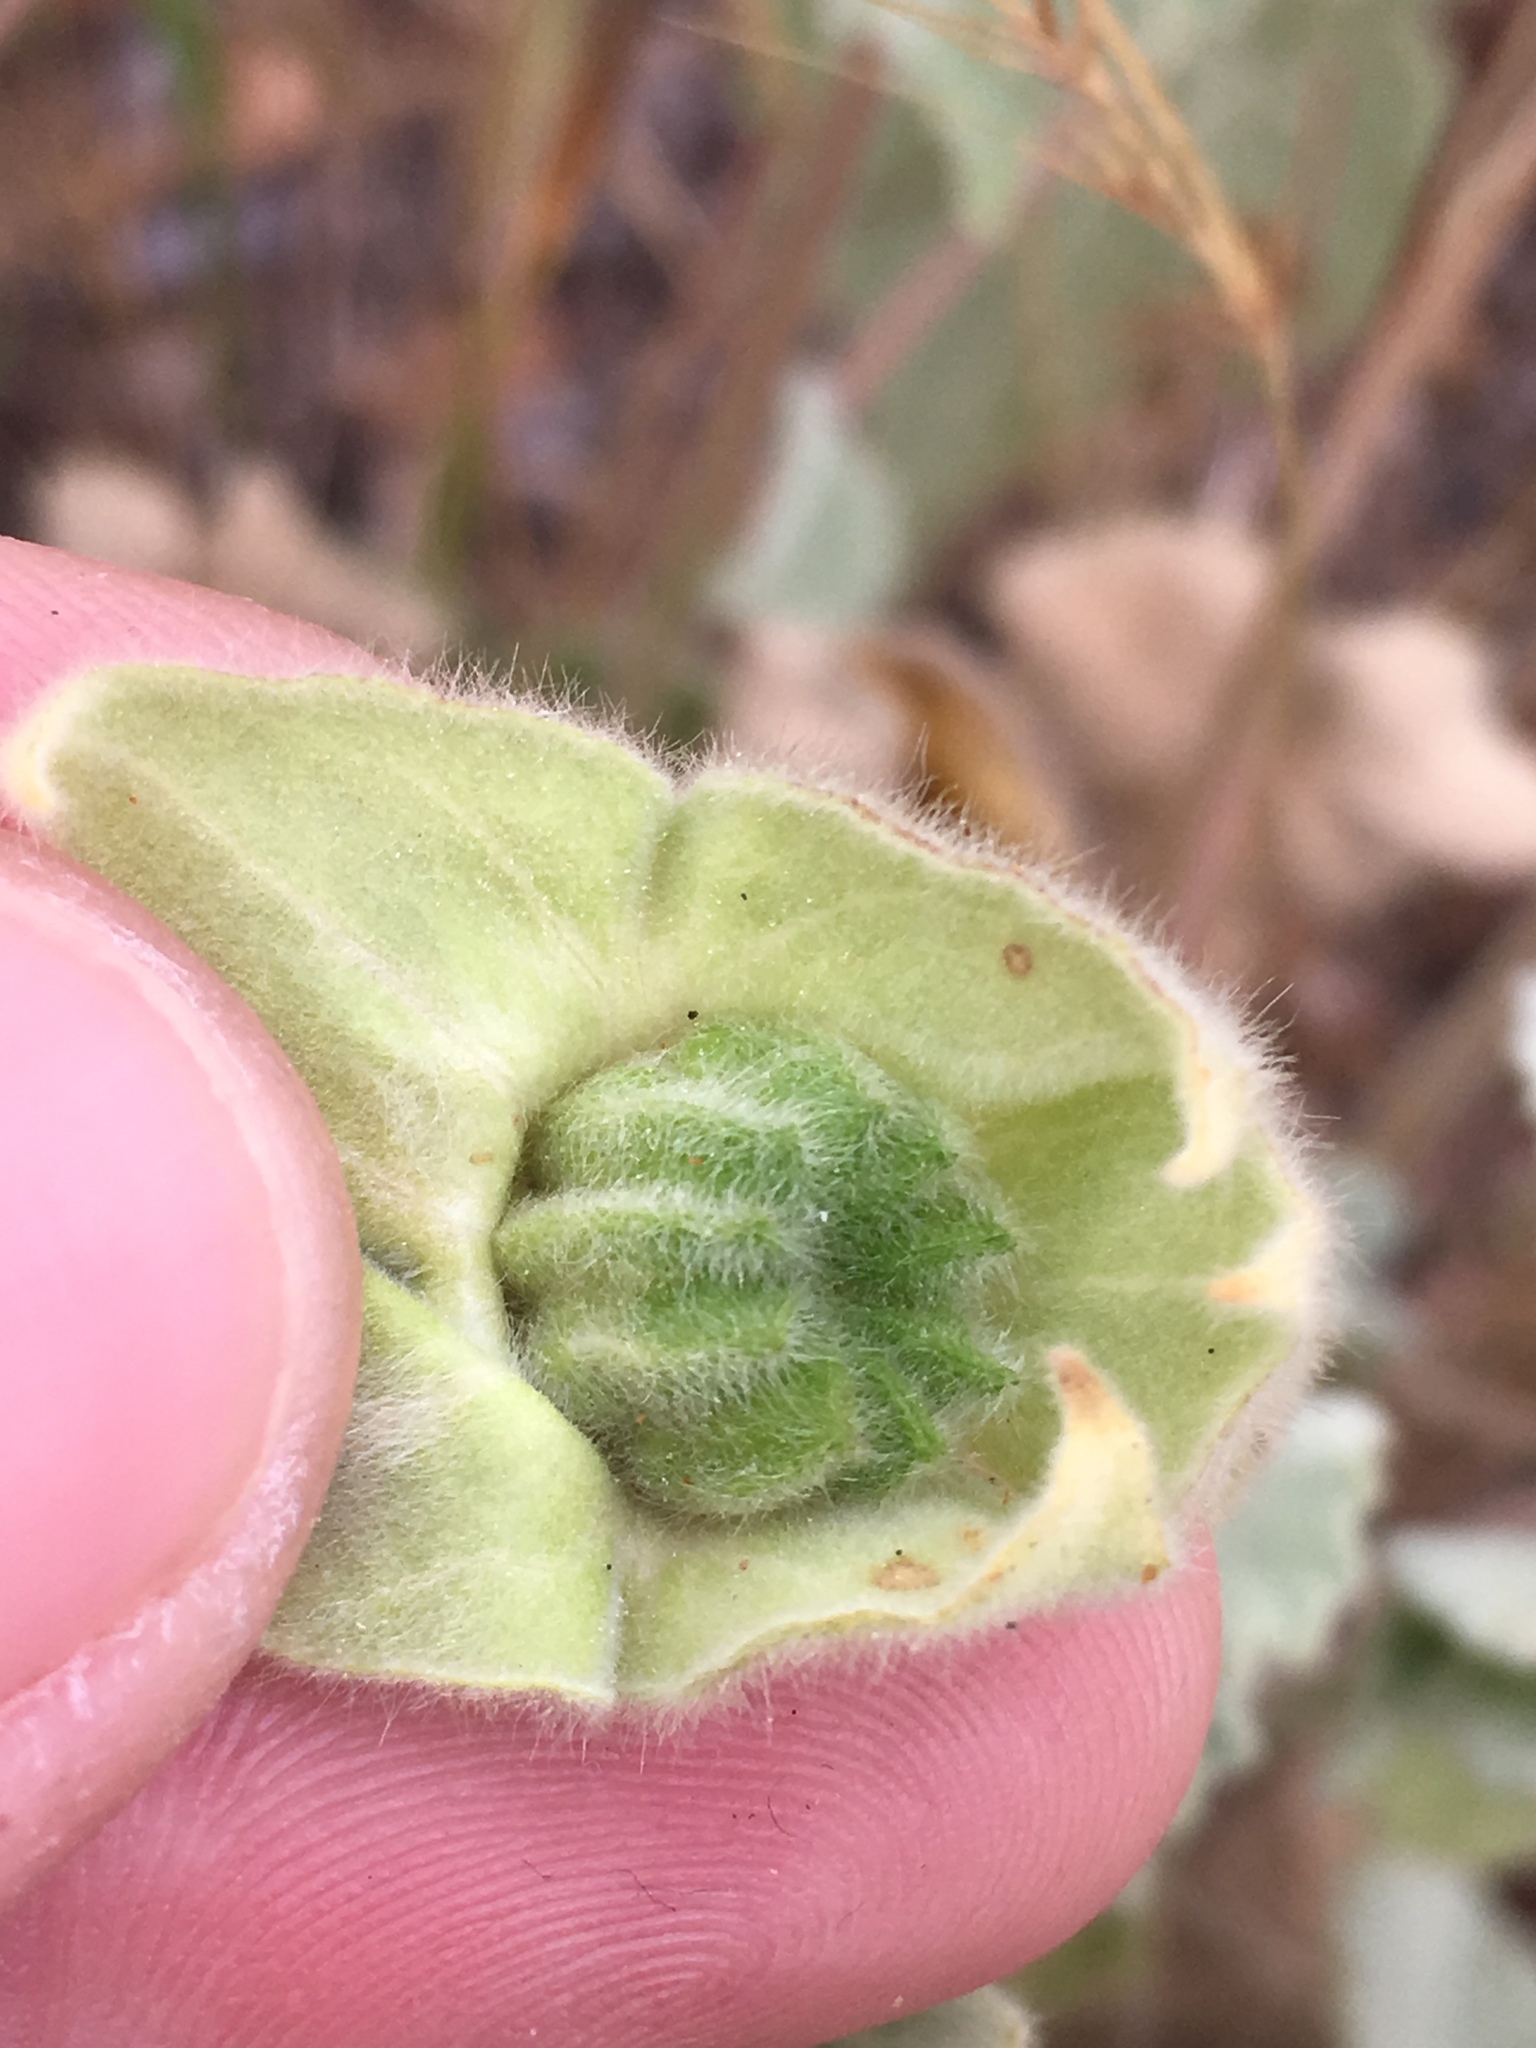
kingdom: Plantae
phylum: Tracheophyta
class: Magnoliopsida
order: Malvales
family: Malvaceae
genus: Abutilon
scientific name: Abutilon palmeri
